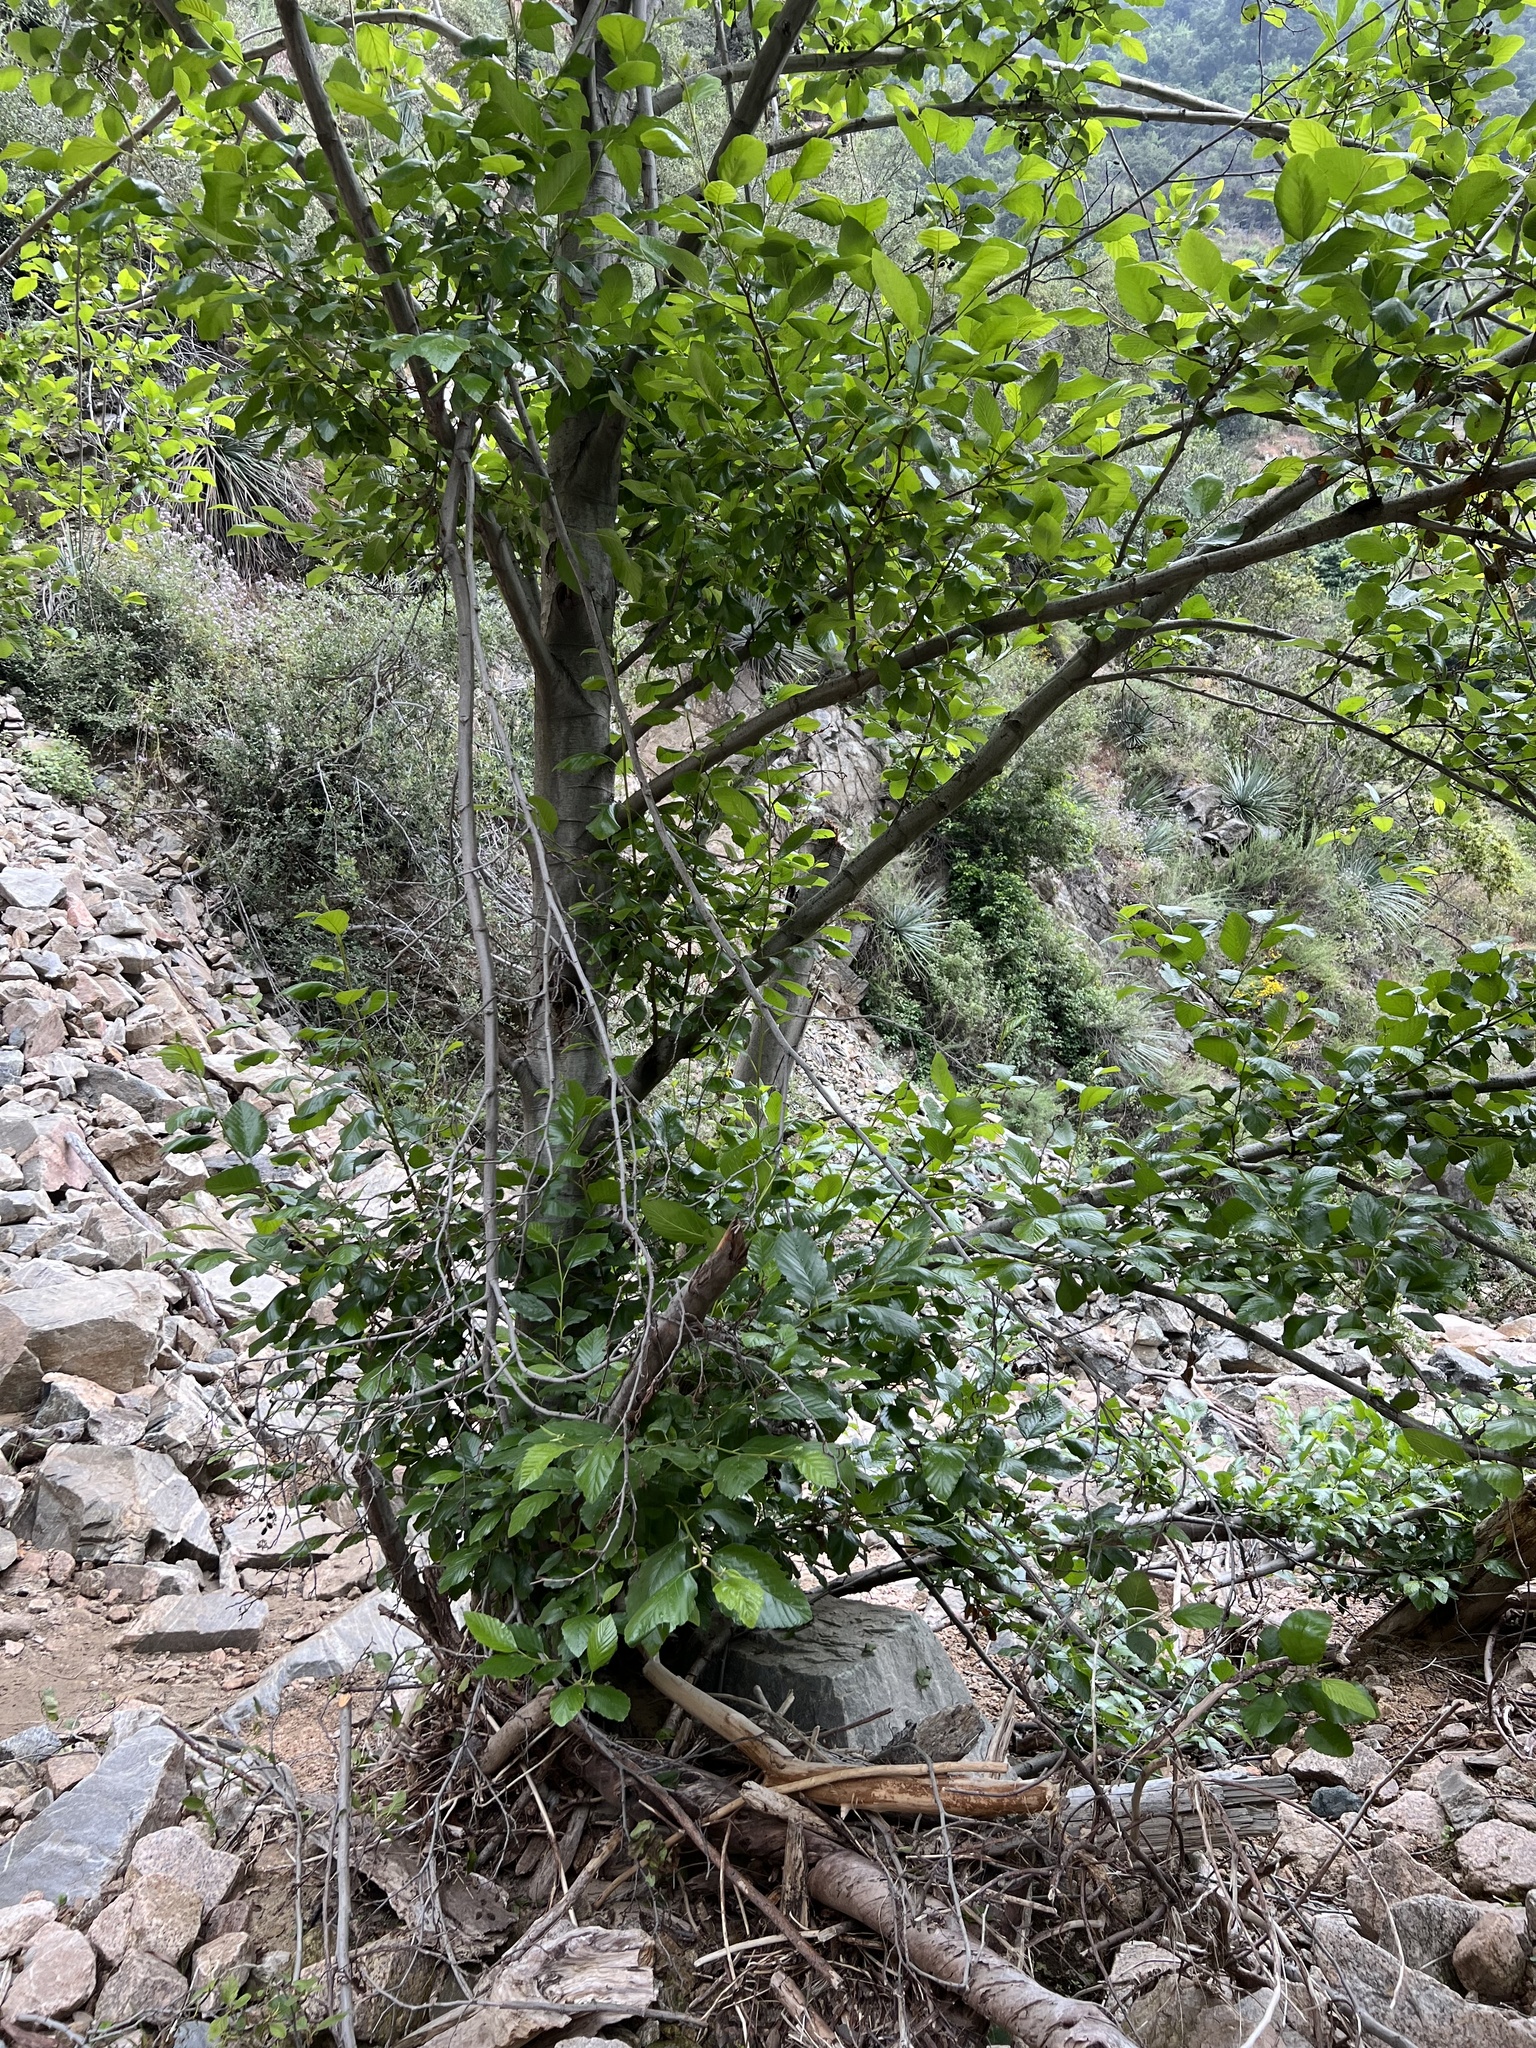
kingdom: Plantae
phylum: Tracheophyta
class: Magnoliopsida
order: Fagales
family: Betulaceae
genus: Alnus
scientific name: Alnus rhombifolia
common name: California alder
